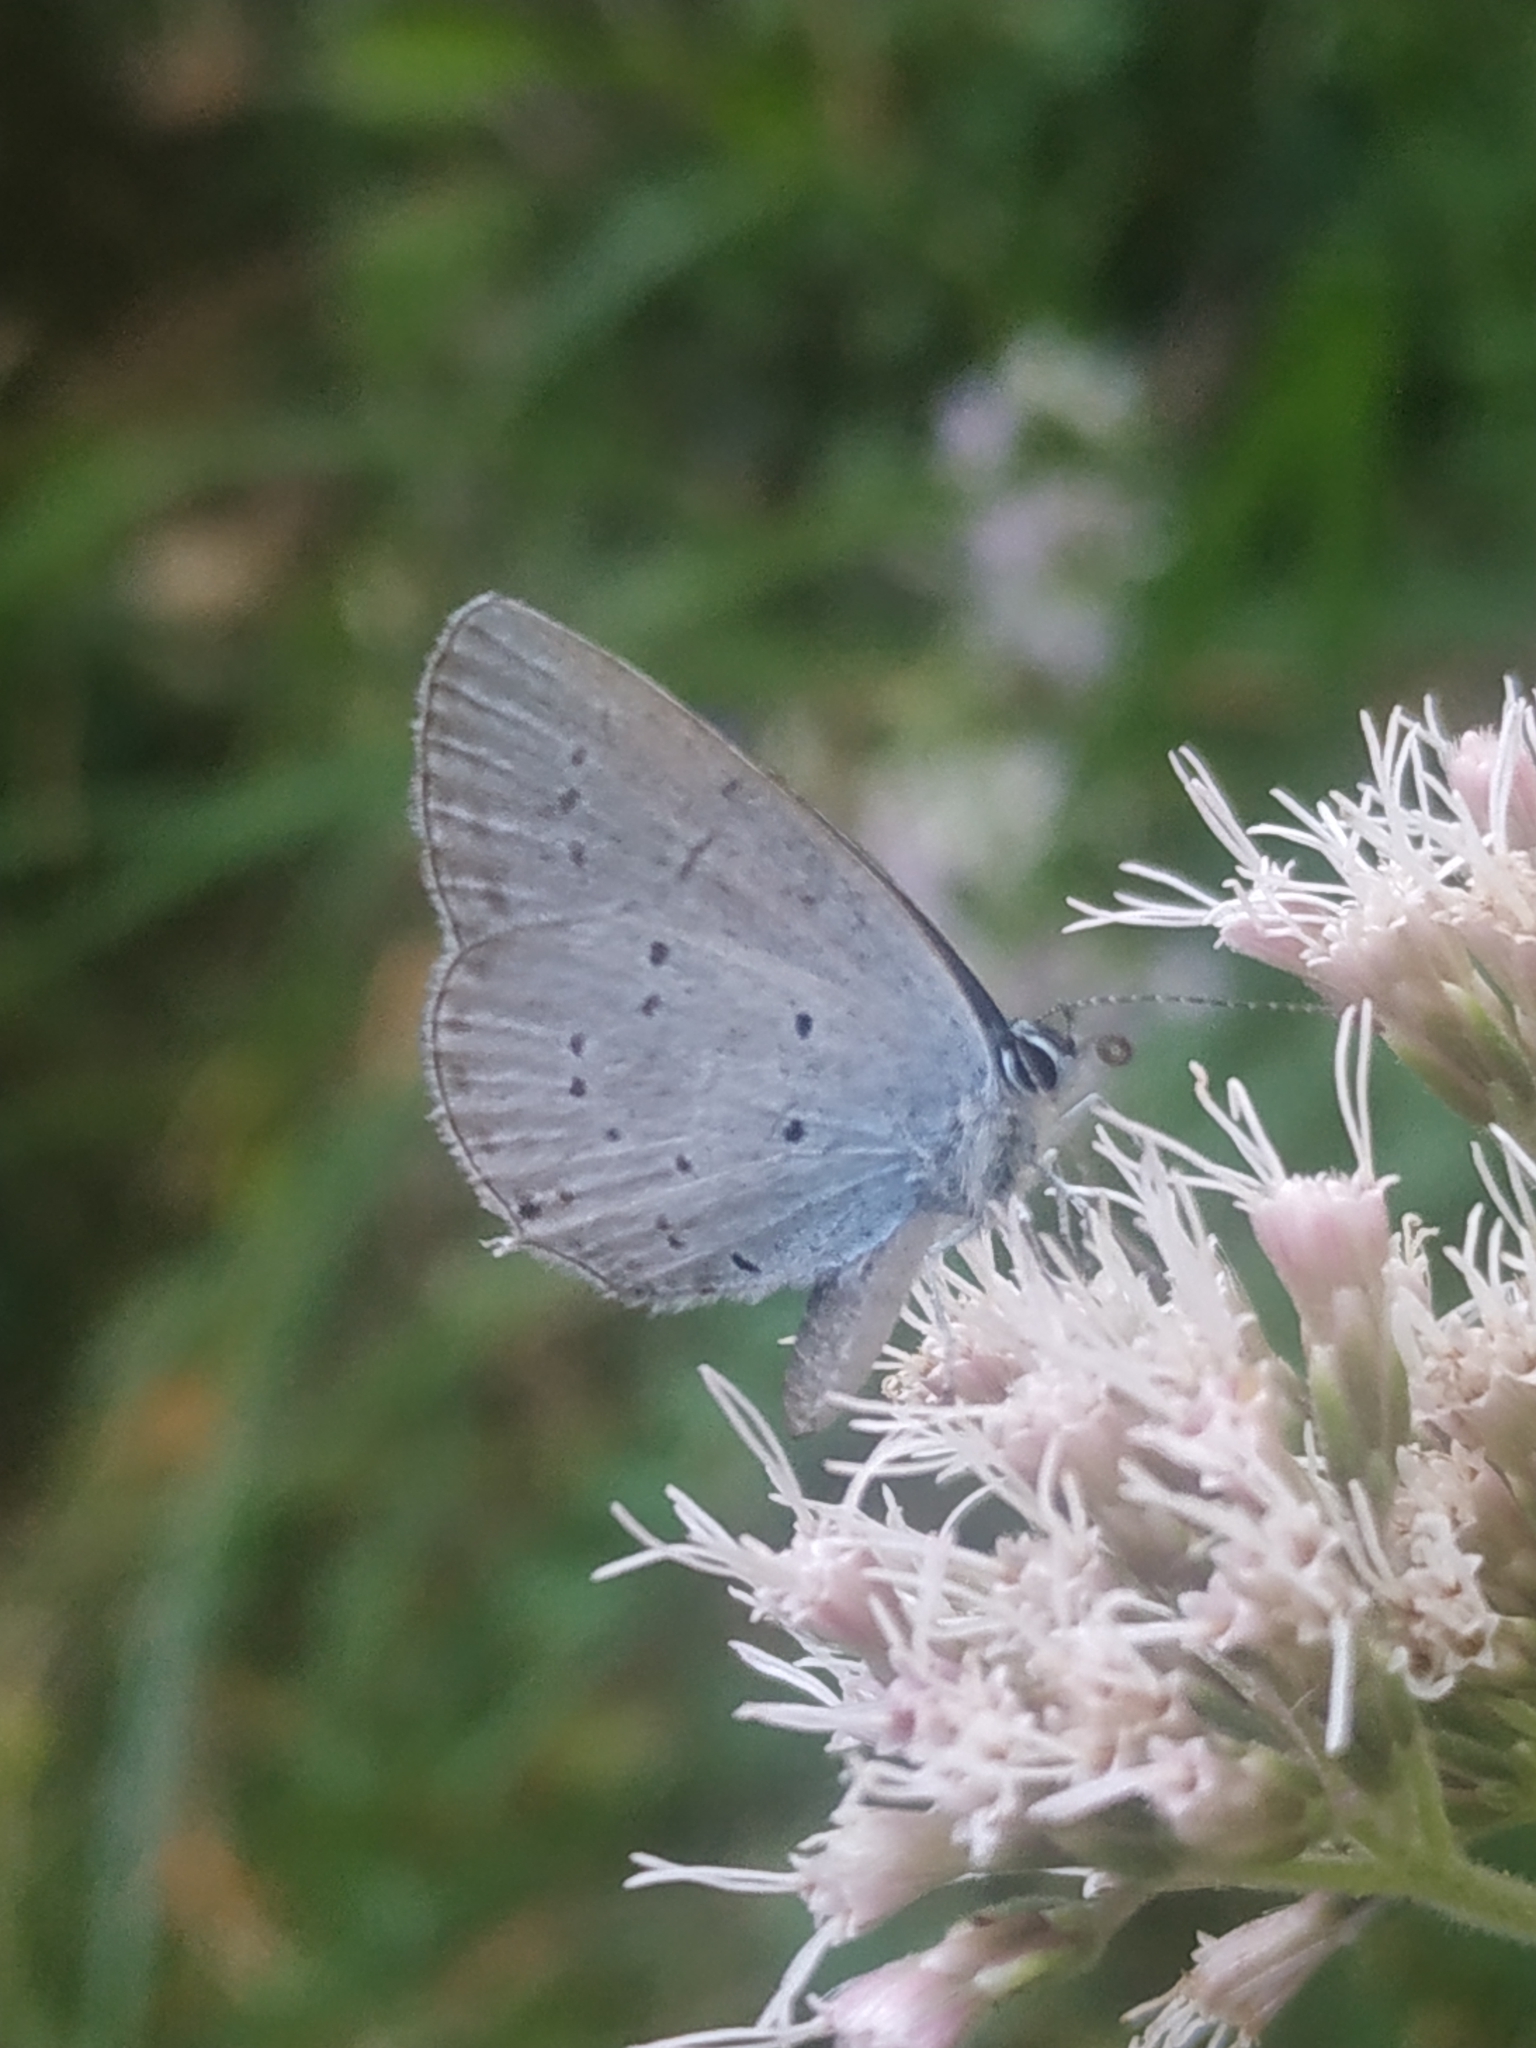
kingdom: Animalia
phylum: Arthropoda
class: Insecta
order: Lepidoptera
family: Lycaenidae
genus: Elkalyce
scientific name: Elkalyce alcetas
